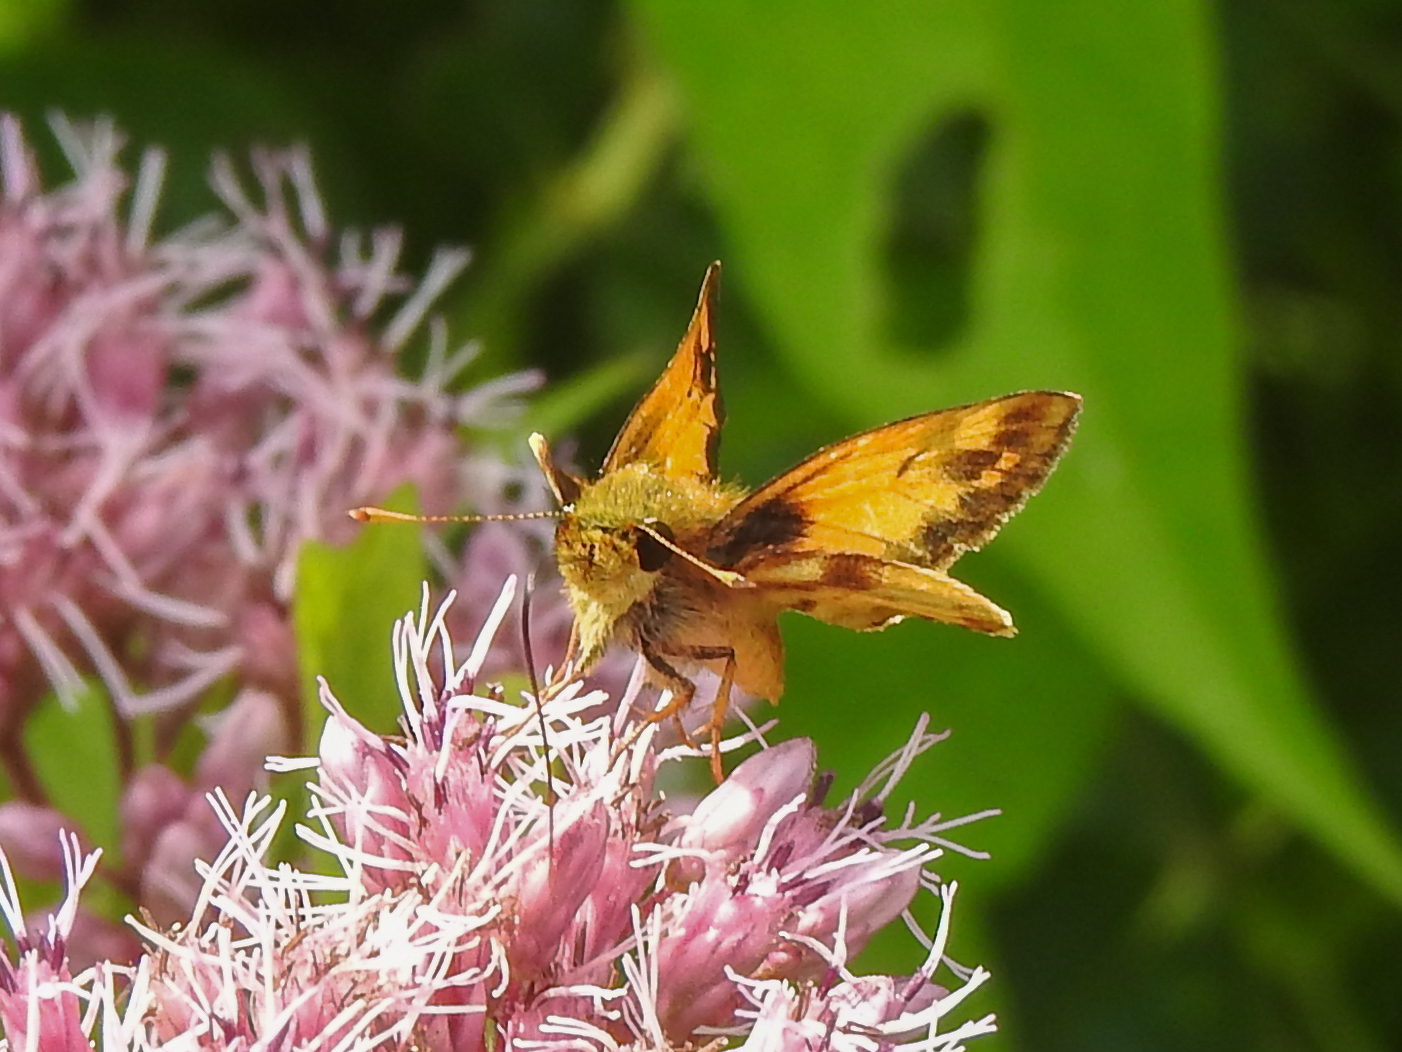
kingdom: Animalia
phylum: Arthropoda
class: Insecta
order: Lepidoptera
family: Hesperiidae
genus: Lon
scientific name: Lon zabulon
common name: Zabulon skipper
